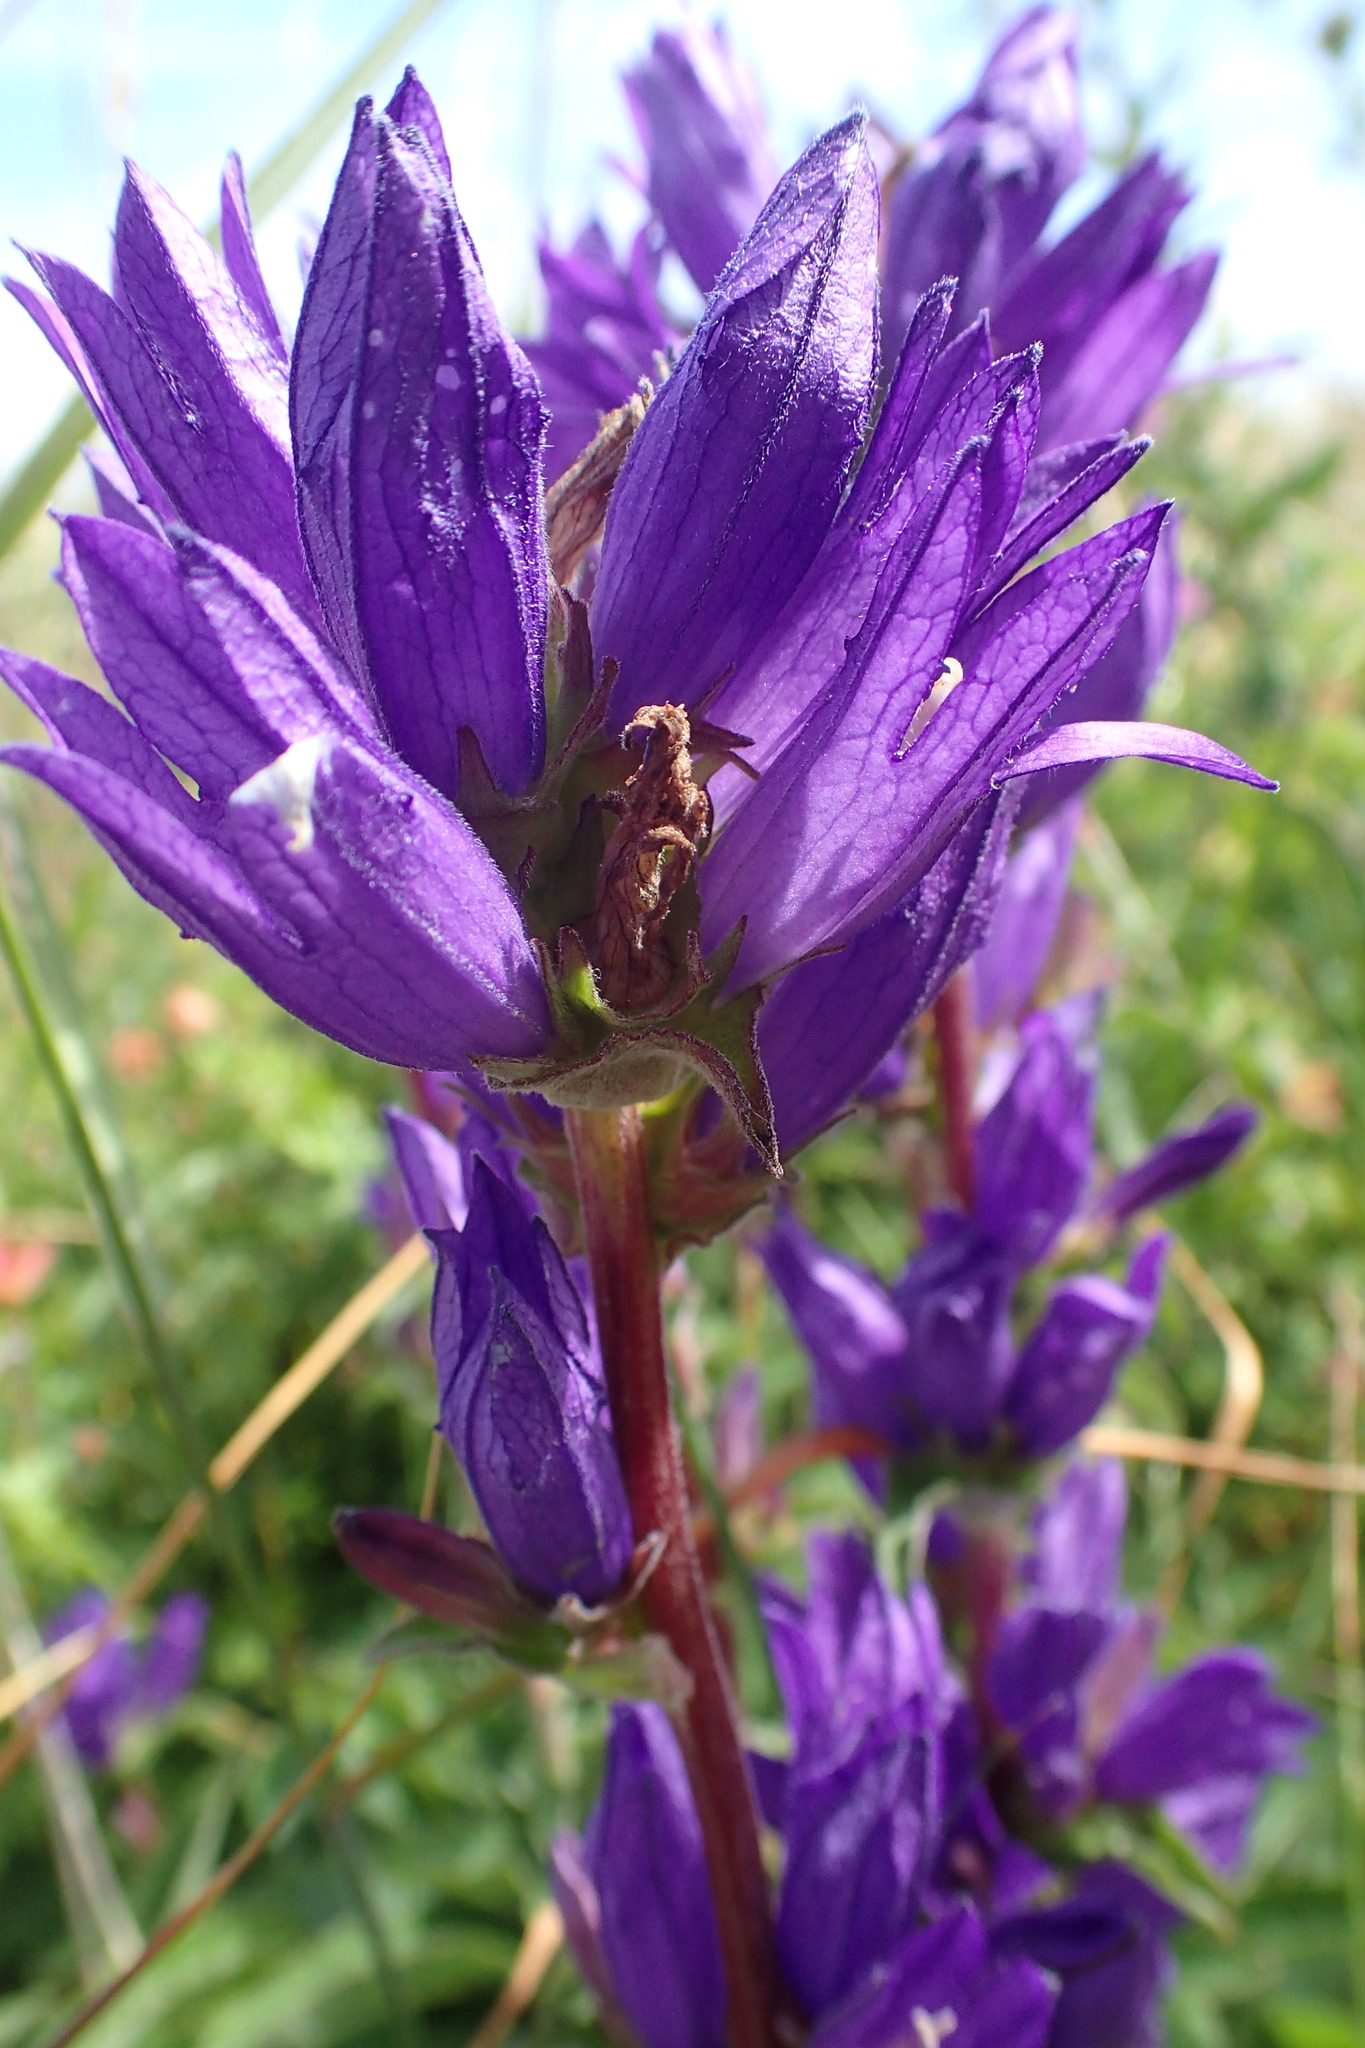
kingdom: Plantae
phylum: Tracheophyta
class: Magnoliopsida
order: Asterales
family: Campanulaceae
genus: Campanula
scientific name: Campanula glomerata
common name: Clustered bellflower
